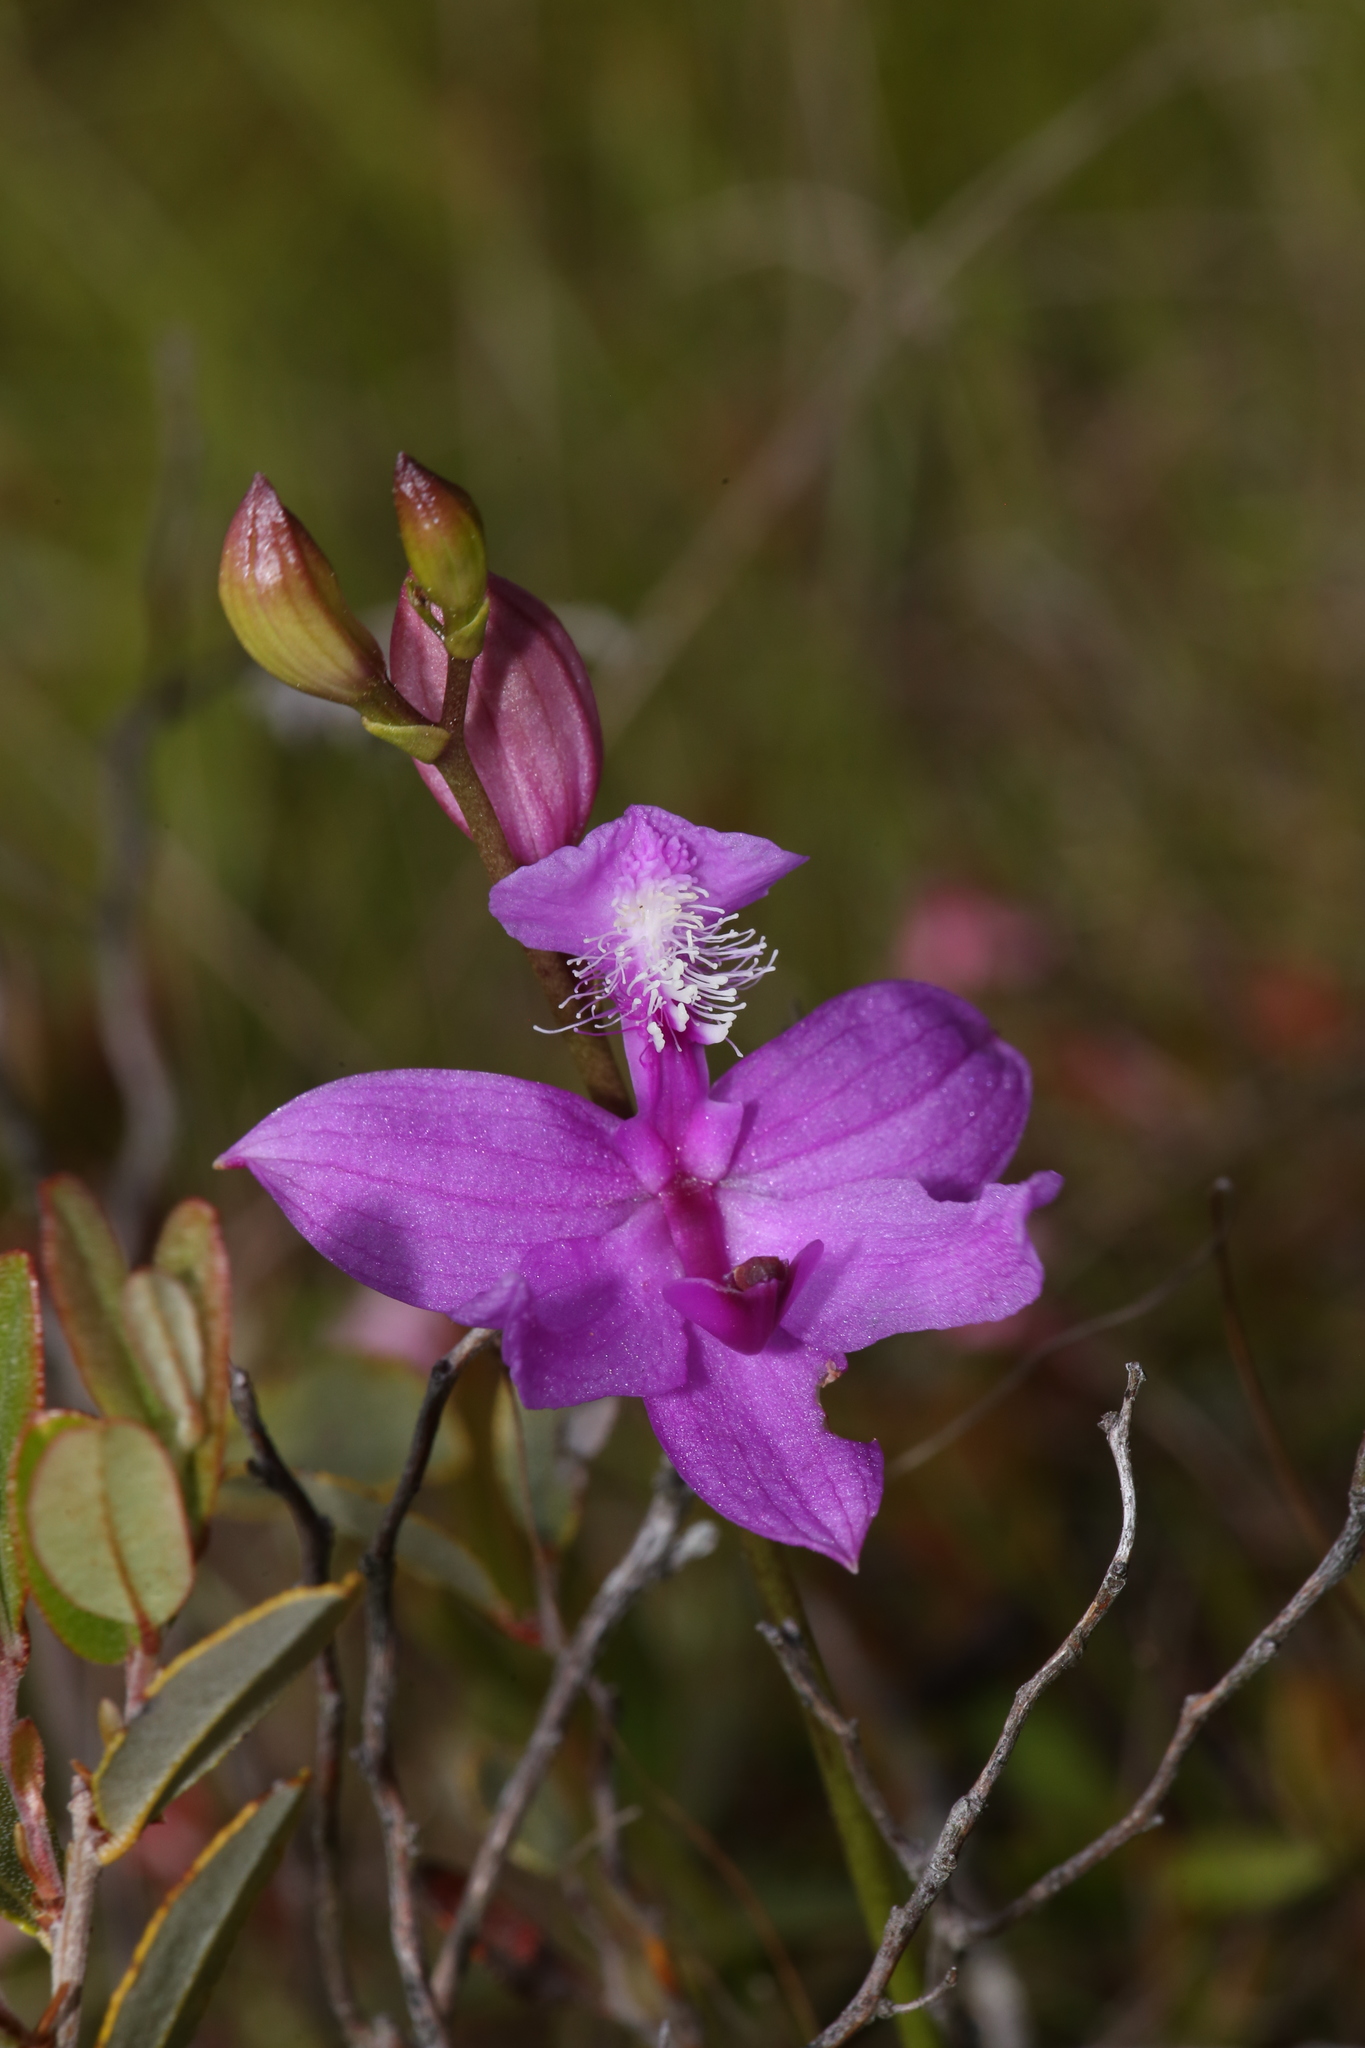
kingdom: Plantae
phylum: Tracheophyta
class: Liliopsida
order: Asparagales
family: Orchidaceae
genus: Calopogon
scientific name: Calopogon tuberosus
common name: Grass-pink
